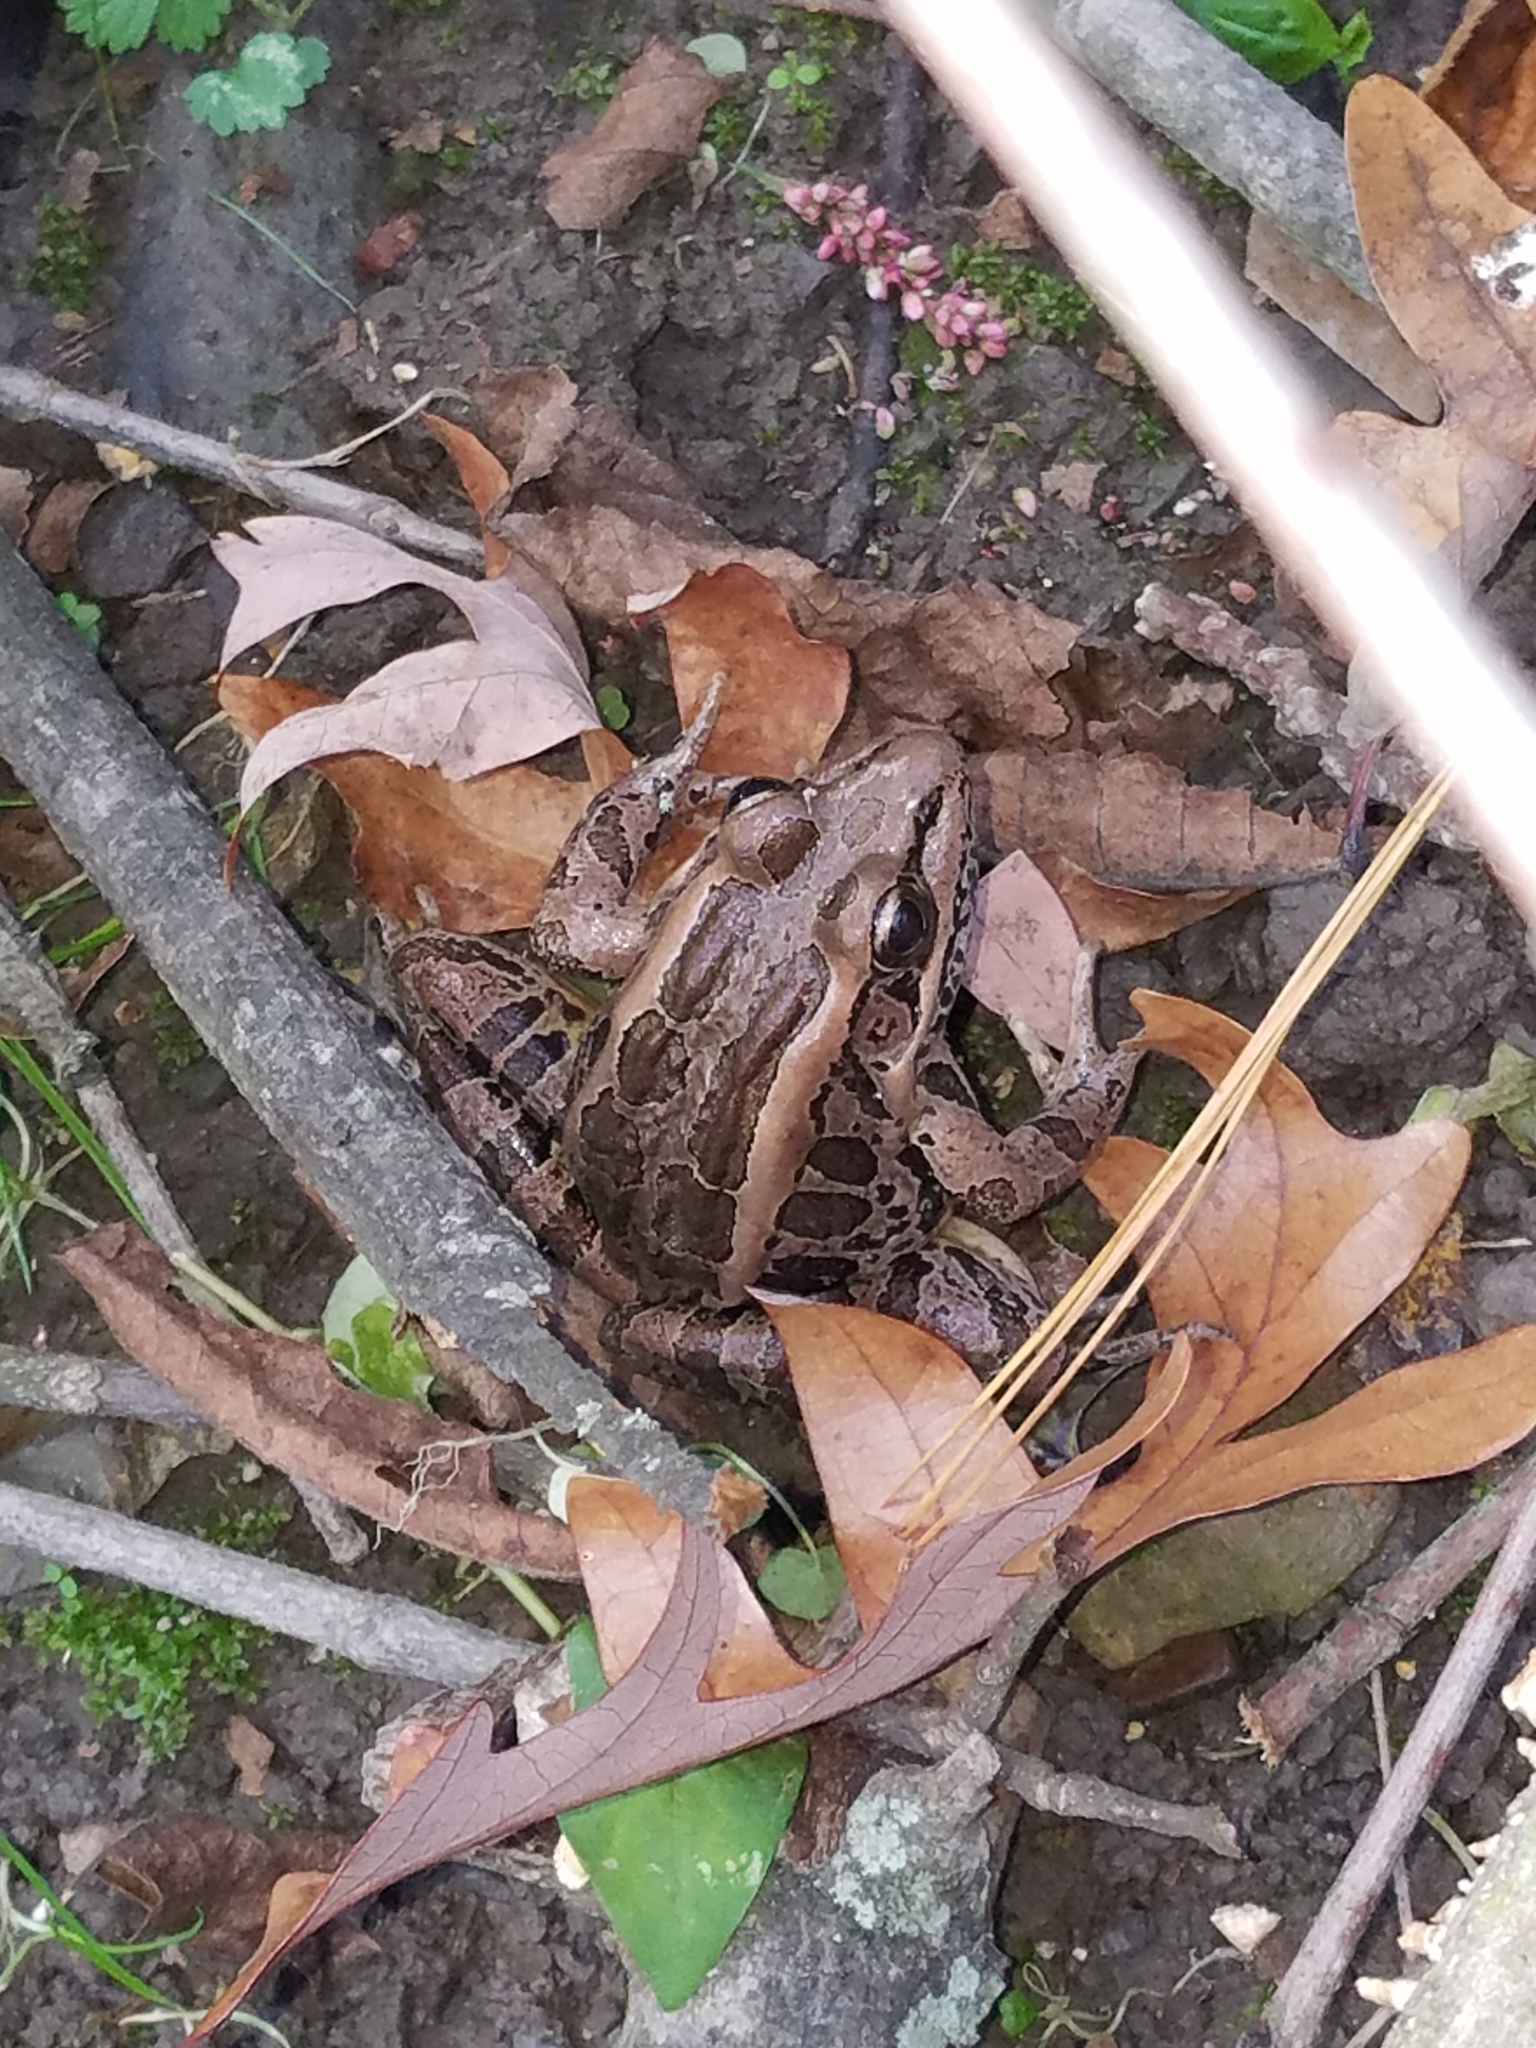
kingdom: Animalia
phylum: Chordata
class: Amphibia
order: Anura
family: Ranidae
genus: Lithobates
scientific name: Lithobates palustris
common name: Pickerel frog
